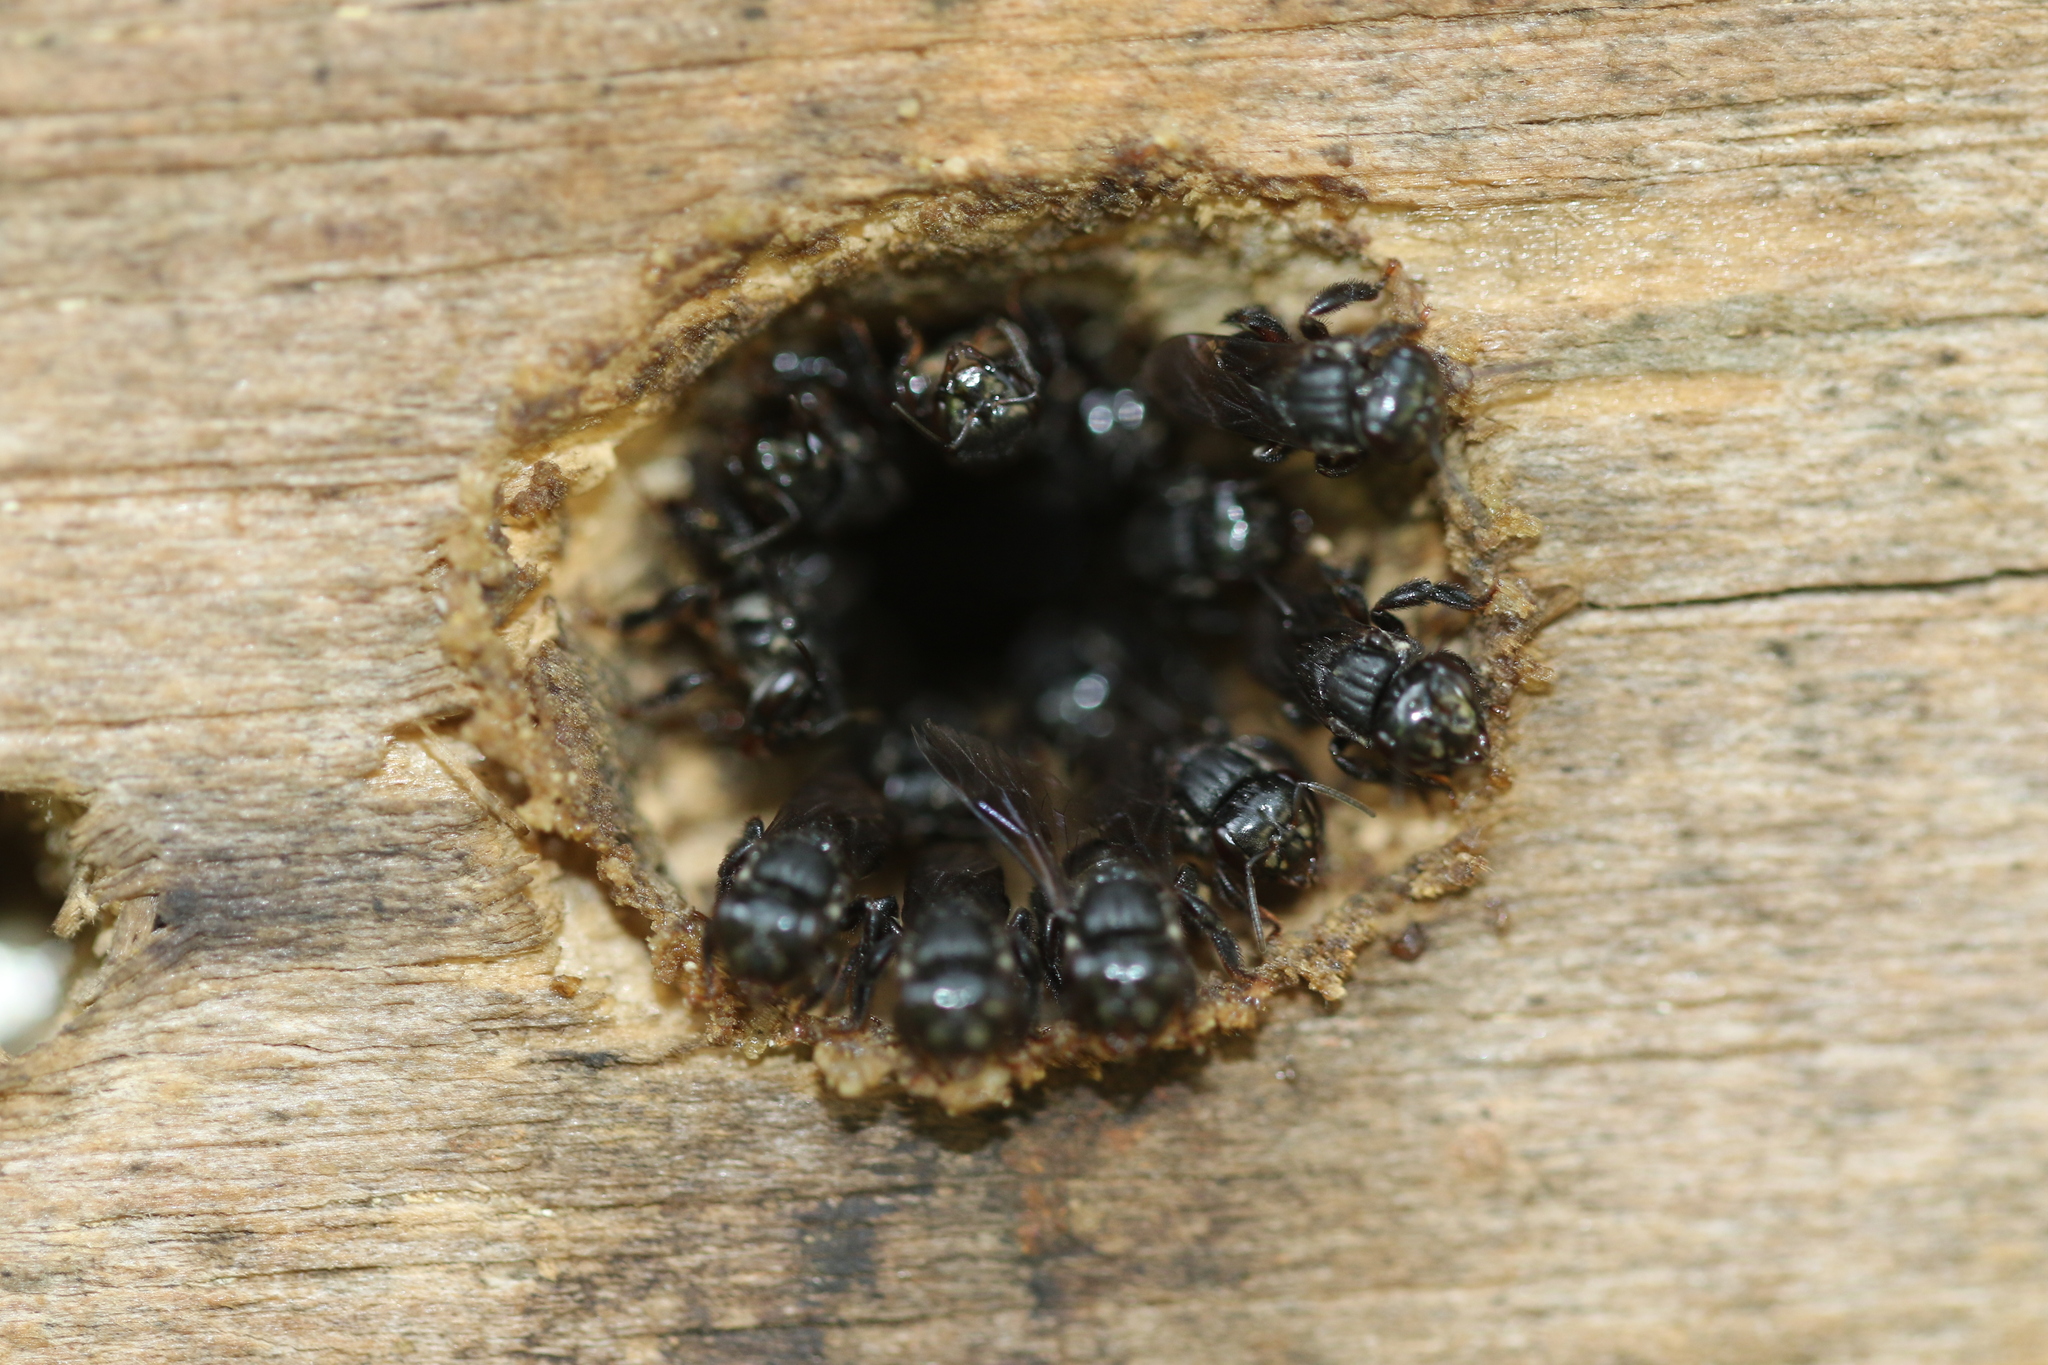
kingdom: Animalia
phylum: Arthropoda
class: Insecta
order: Hymenoptera
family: Apidae
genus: Scaptotrigona
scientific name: Scaptotrigona bipunctata
